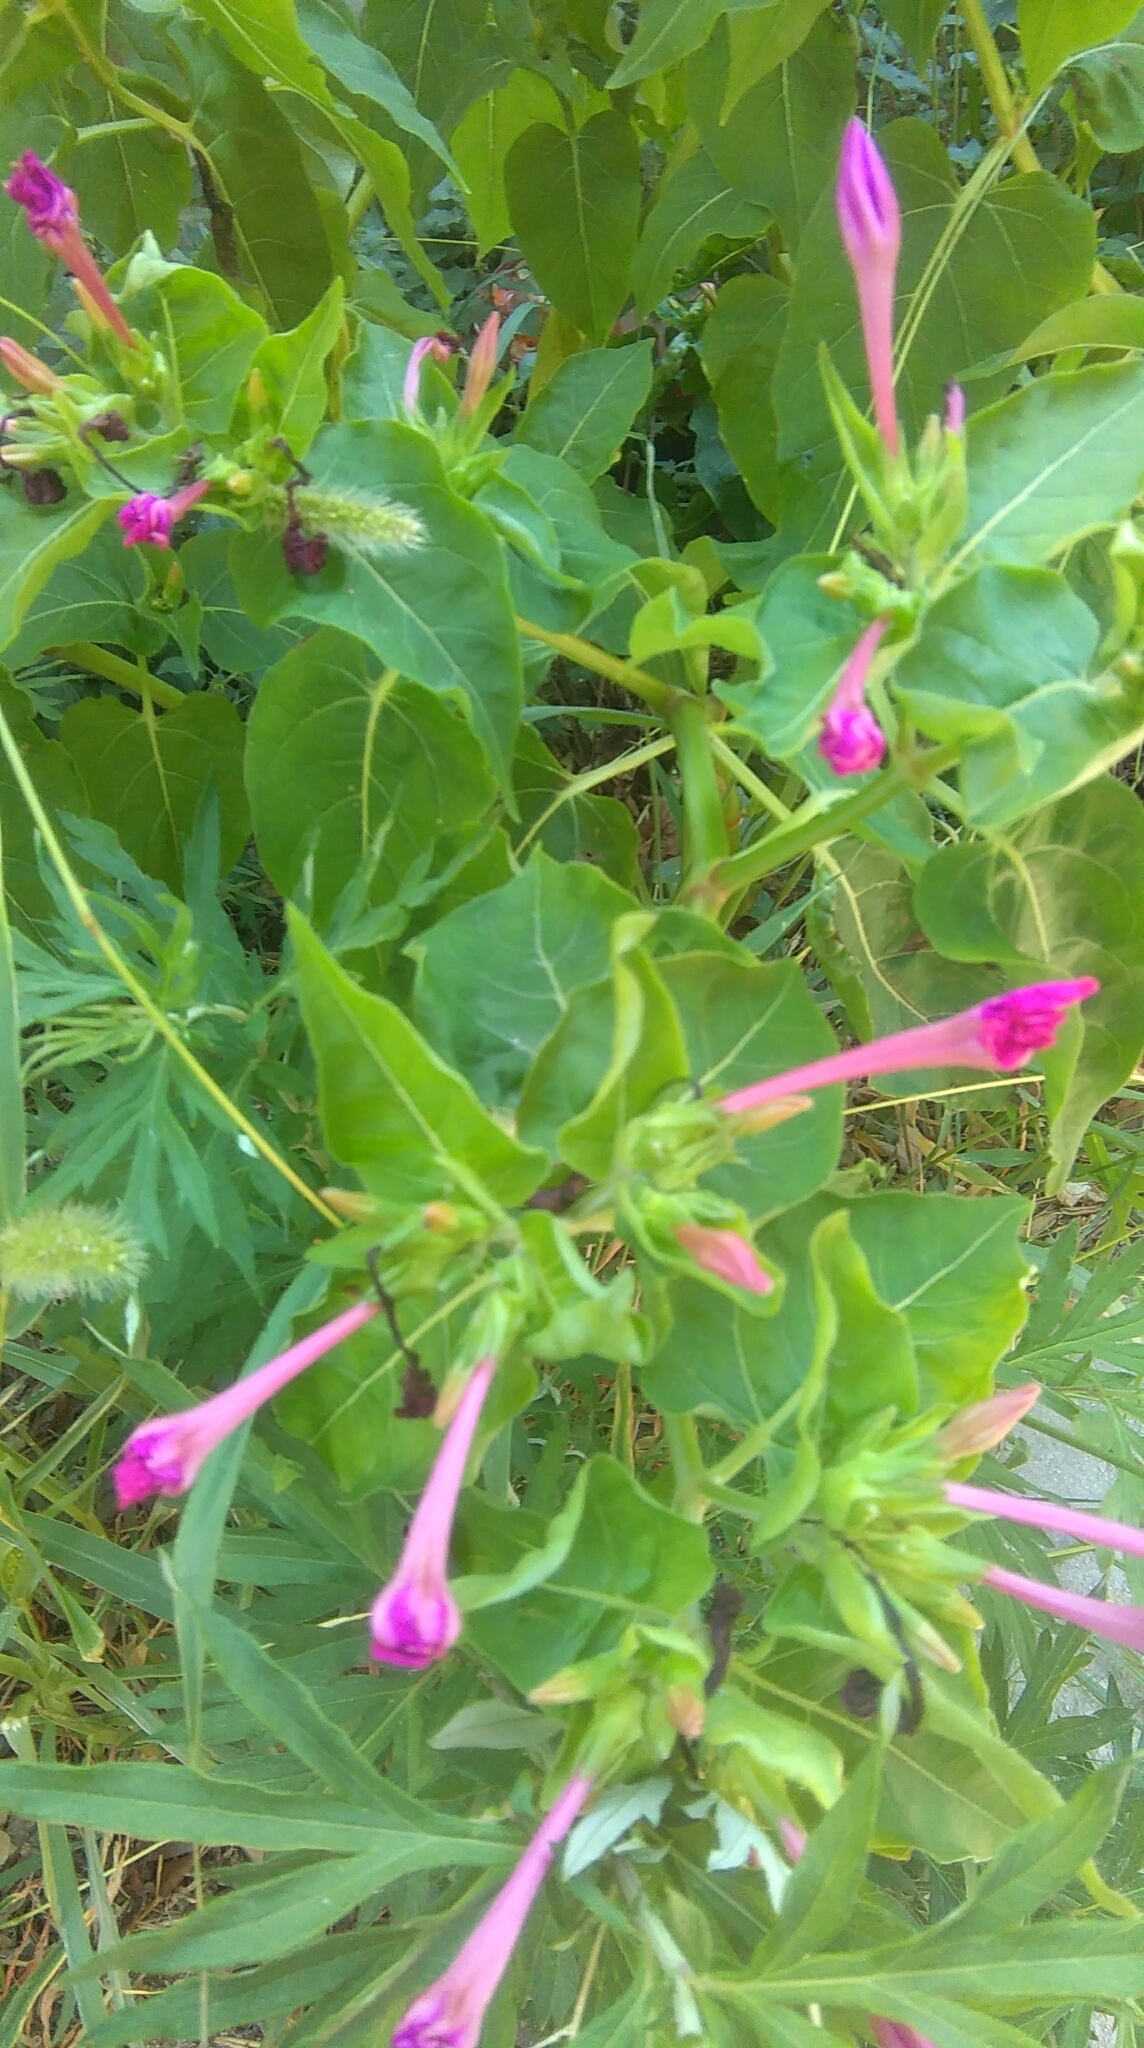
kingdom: Plantae
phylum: Tracheophyta
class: Magnoliopsida
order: Caryophyllales
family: Nyctaginaceae
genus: Mirabilis
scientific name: Mirabilis jalapa
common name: Marvel-of-peru
